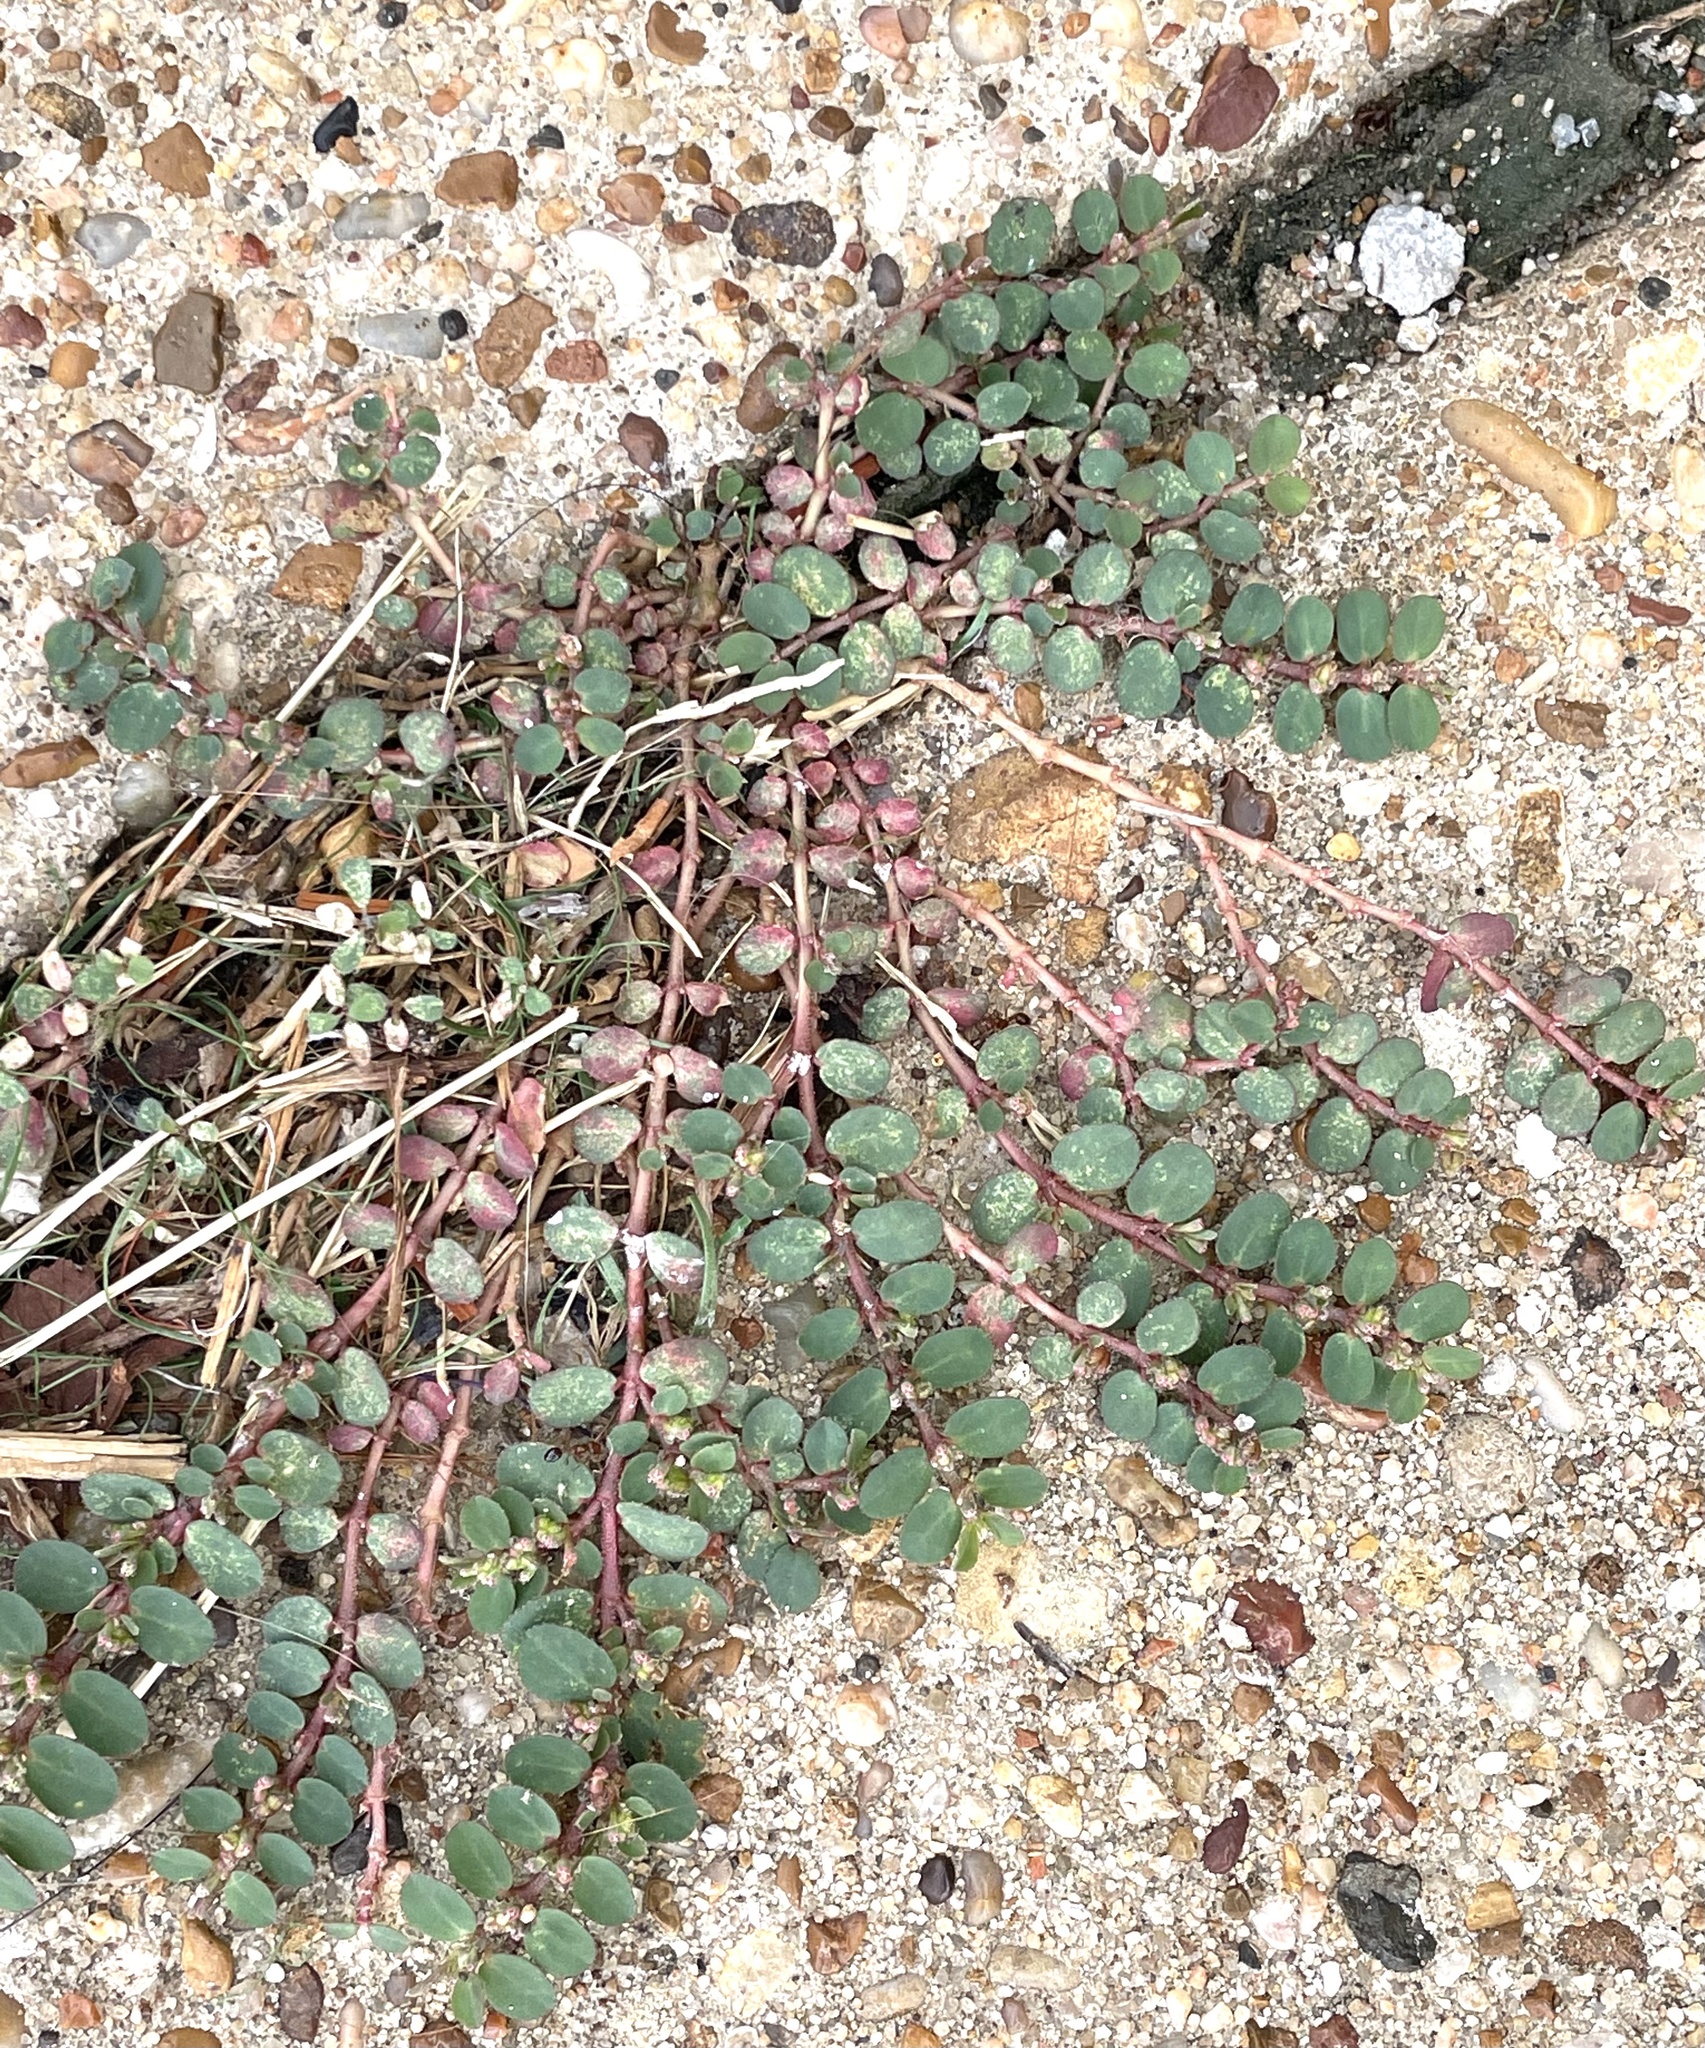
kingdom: Plantae
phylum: Tracheophyta
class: Magnoliopsida
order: Malpighiales
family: Euphorbiaceae
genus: Euphorbia
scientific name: Euphorbia prostrata
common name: Prostrate sandmat
